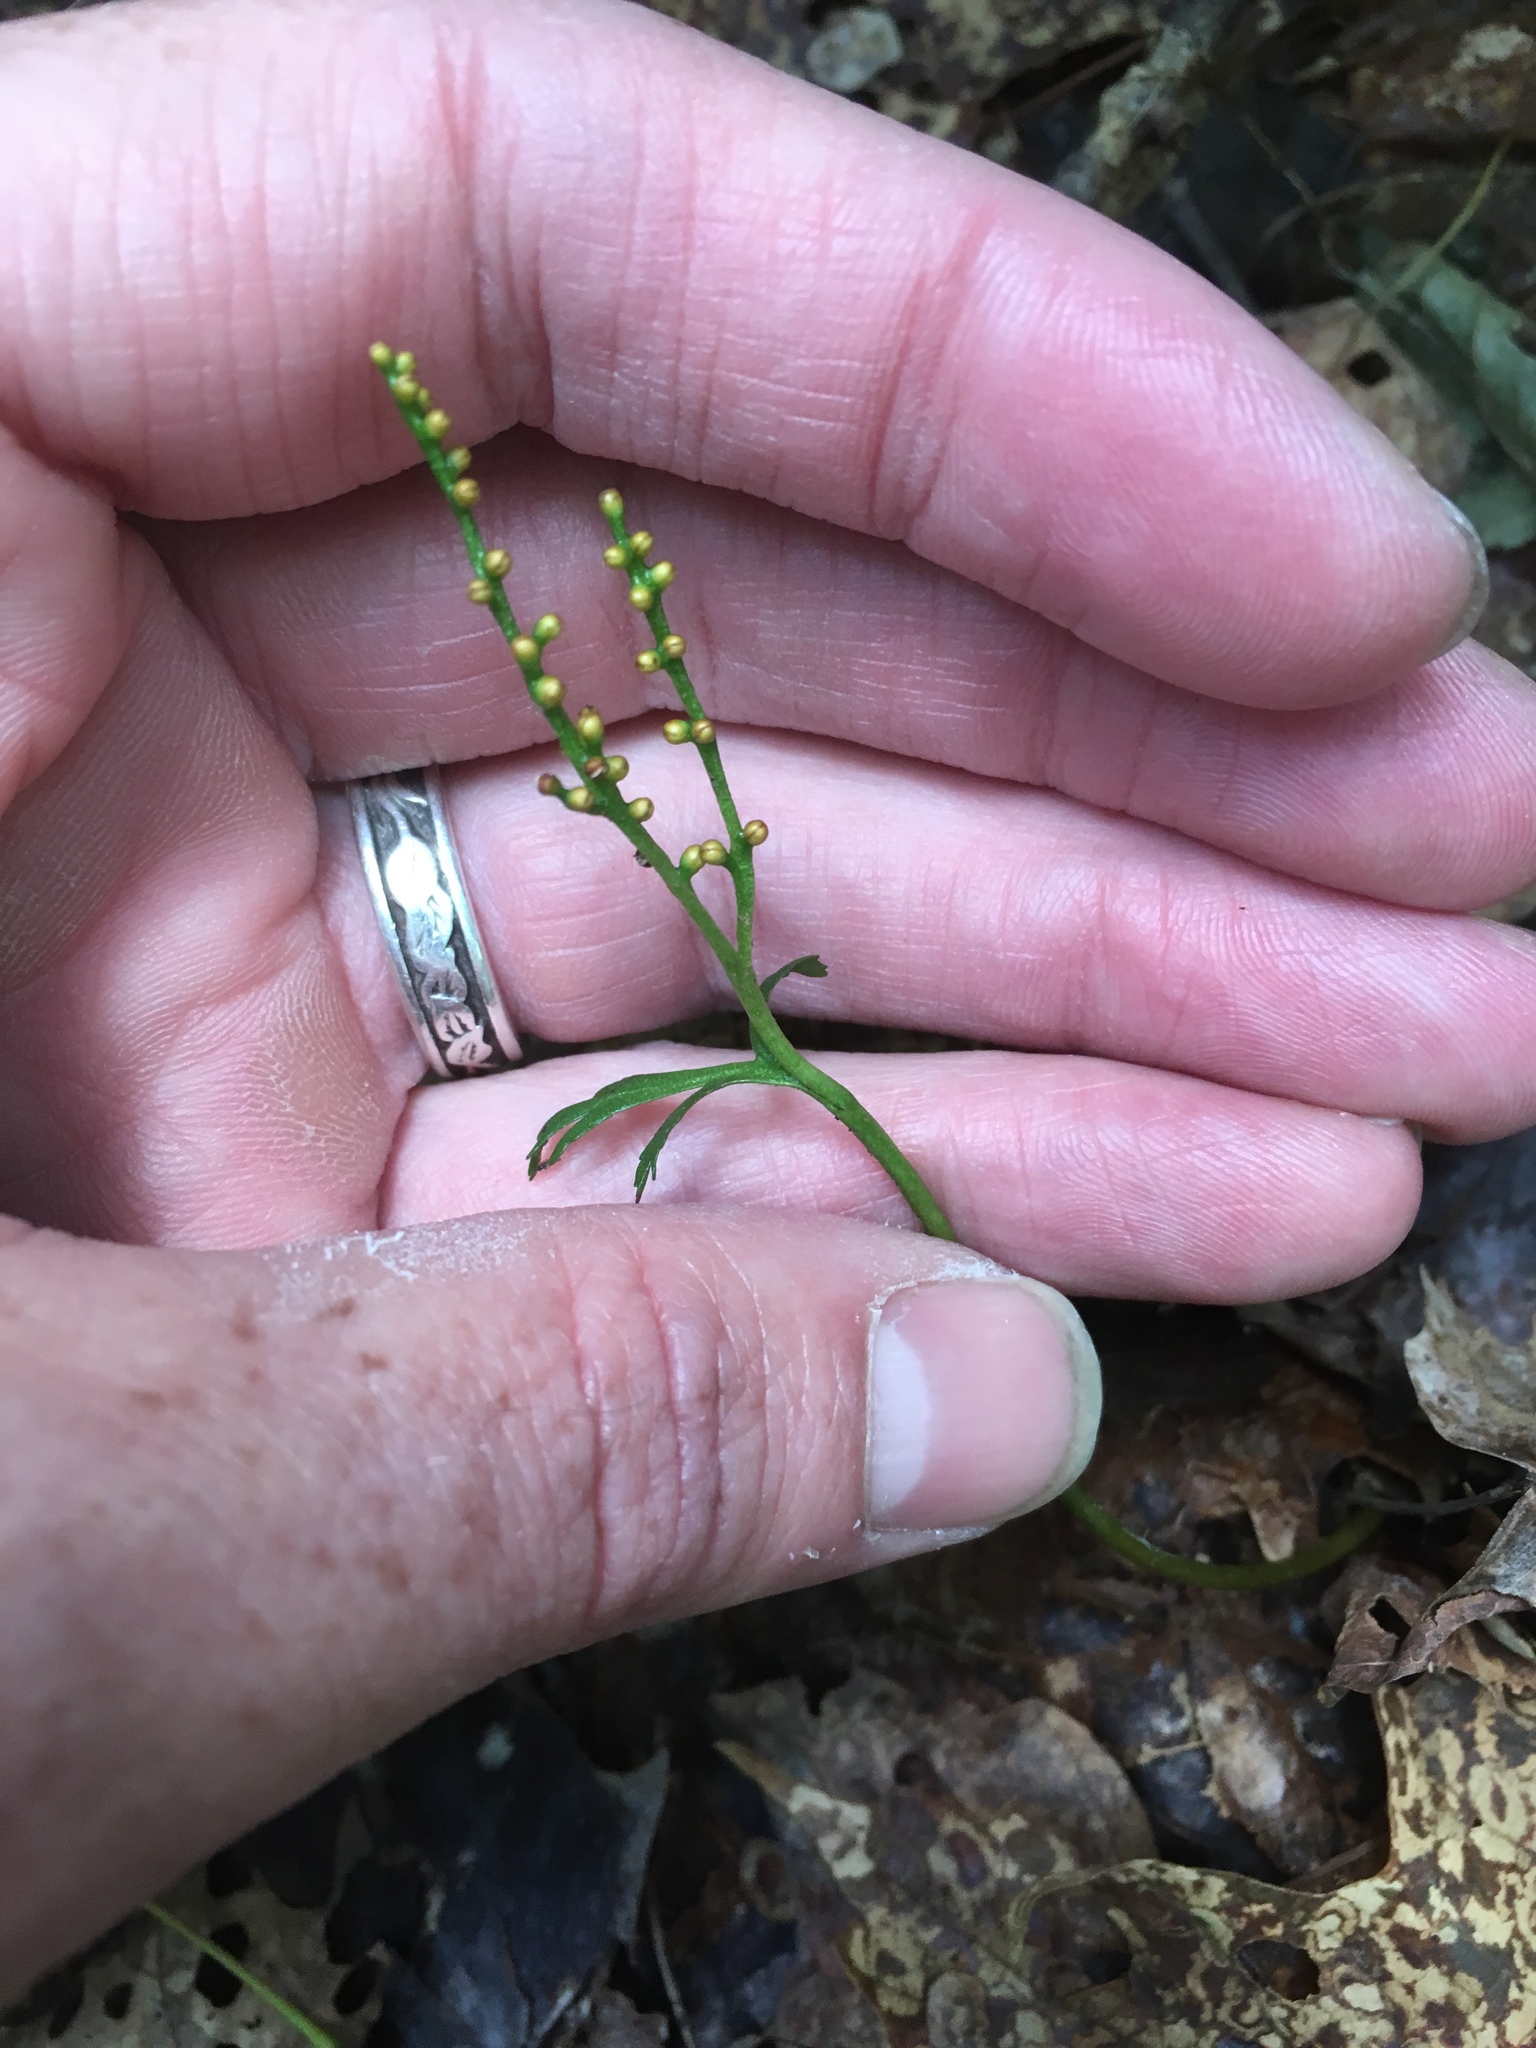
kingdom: Plantae
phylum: Tracheophyta
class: Polypodiopsida
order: Ophioglossales
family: Ophioglossaceae
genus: Botrychium
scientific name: Botrychium angustisegmentum
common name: Narrow triangle moonwort
